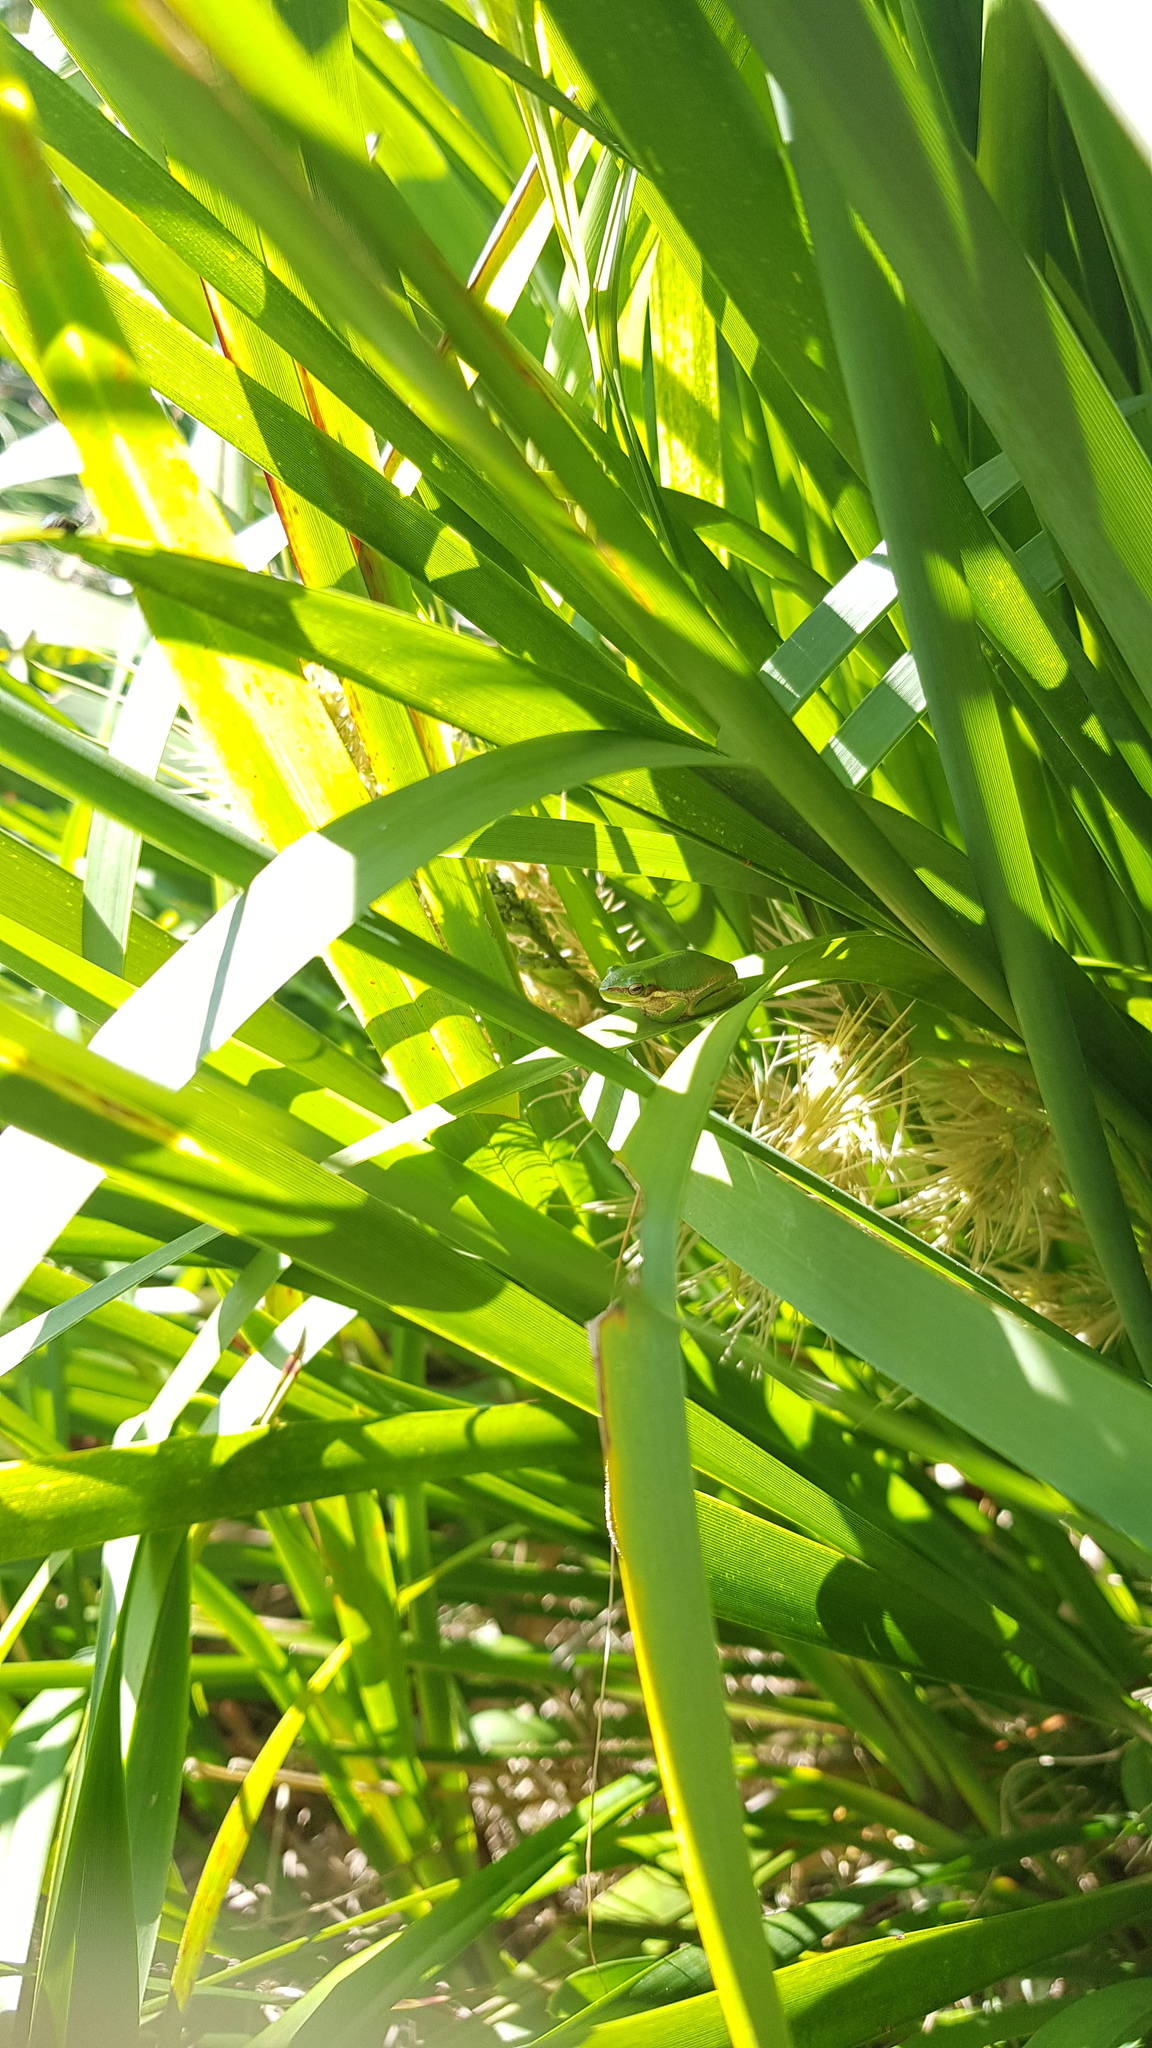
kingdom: Animalia
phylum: Chordata
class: Amphibia
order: Anura
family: Pelodryadidae
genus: Litoria
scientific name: Litoria fallax
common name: Eastern dwarf treefrog
